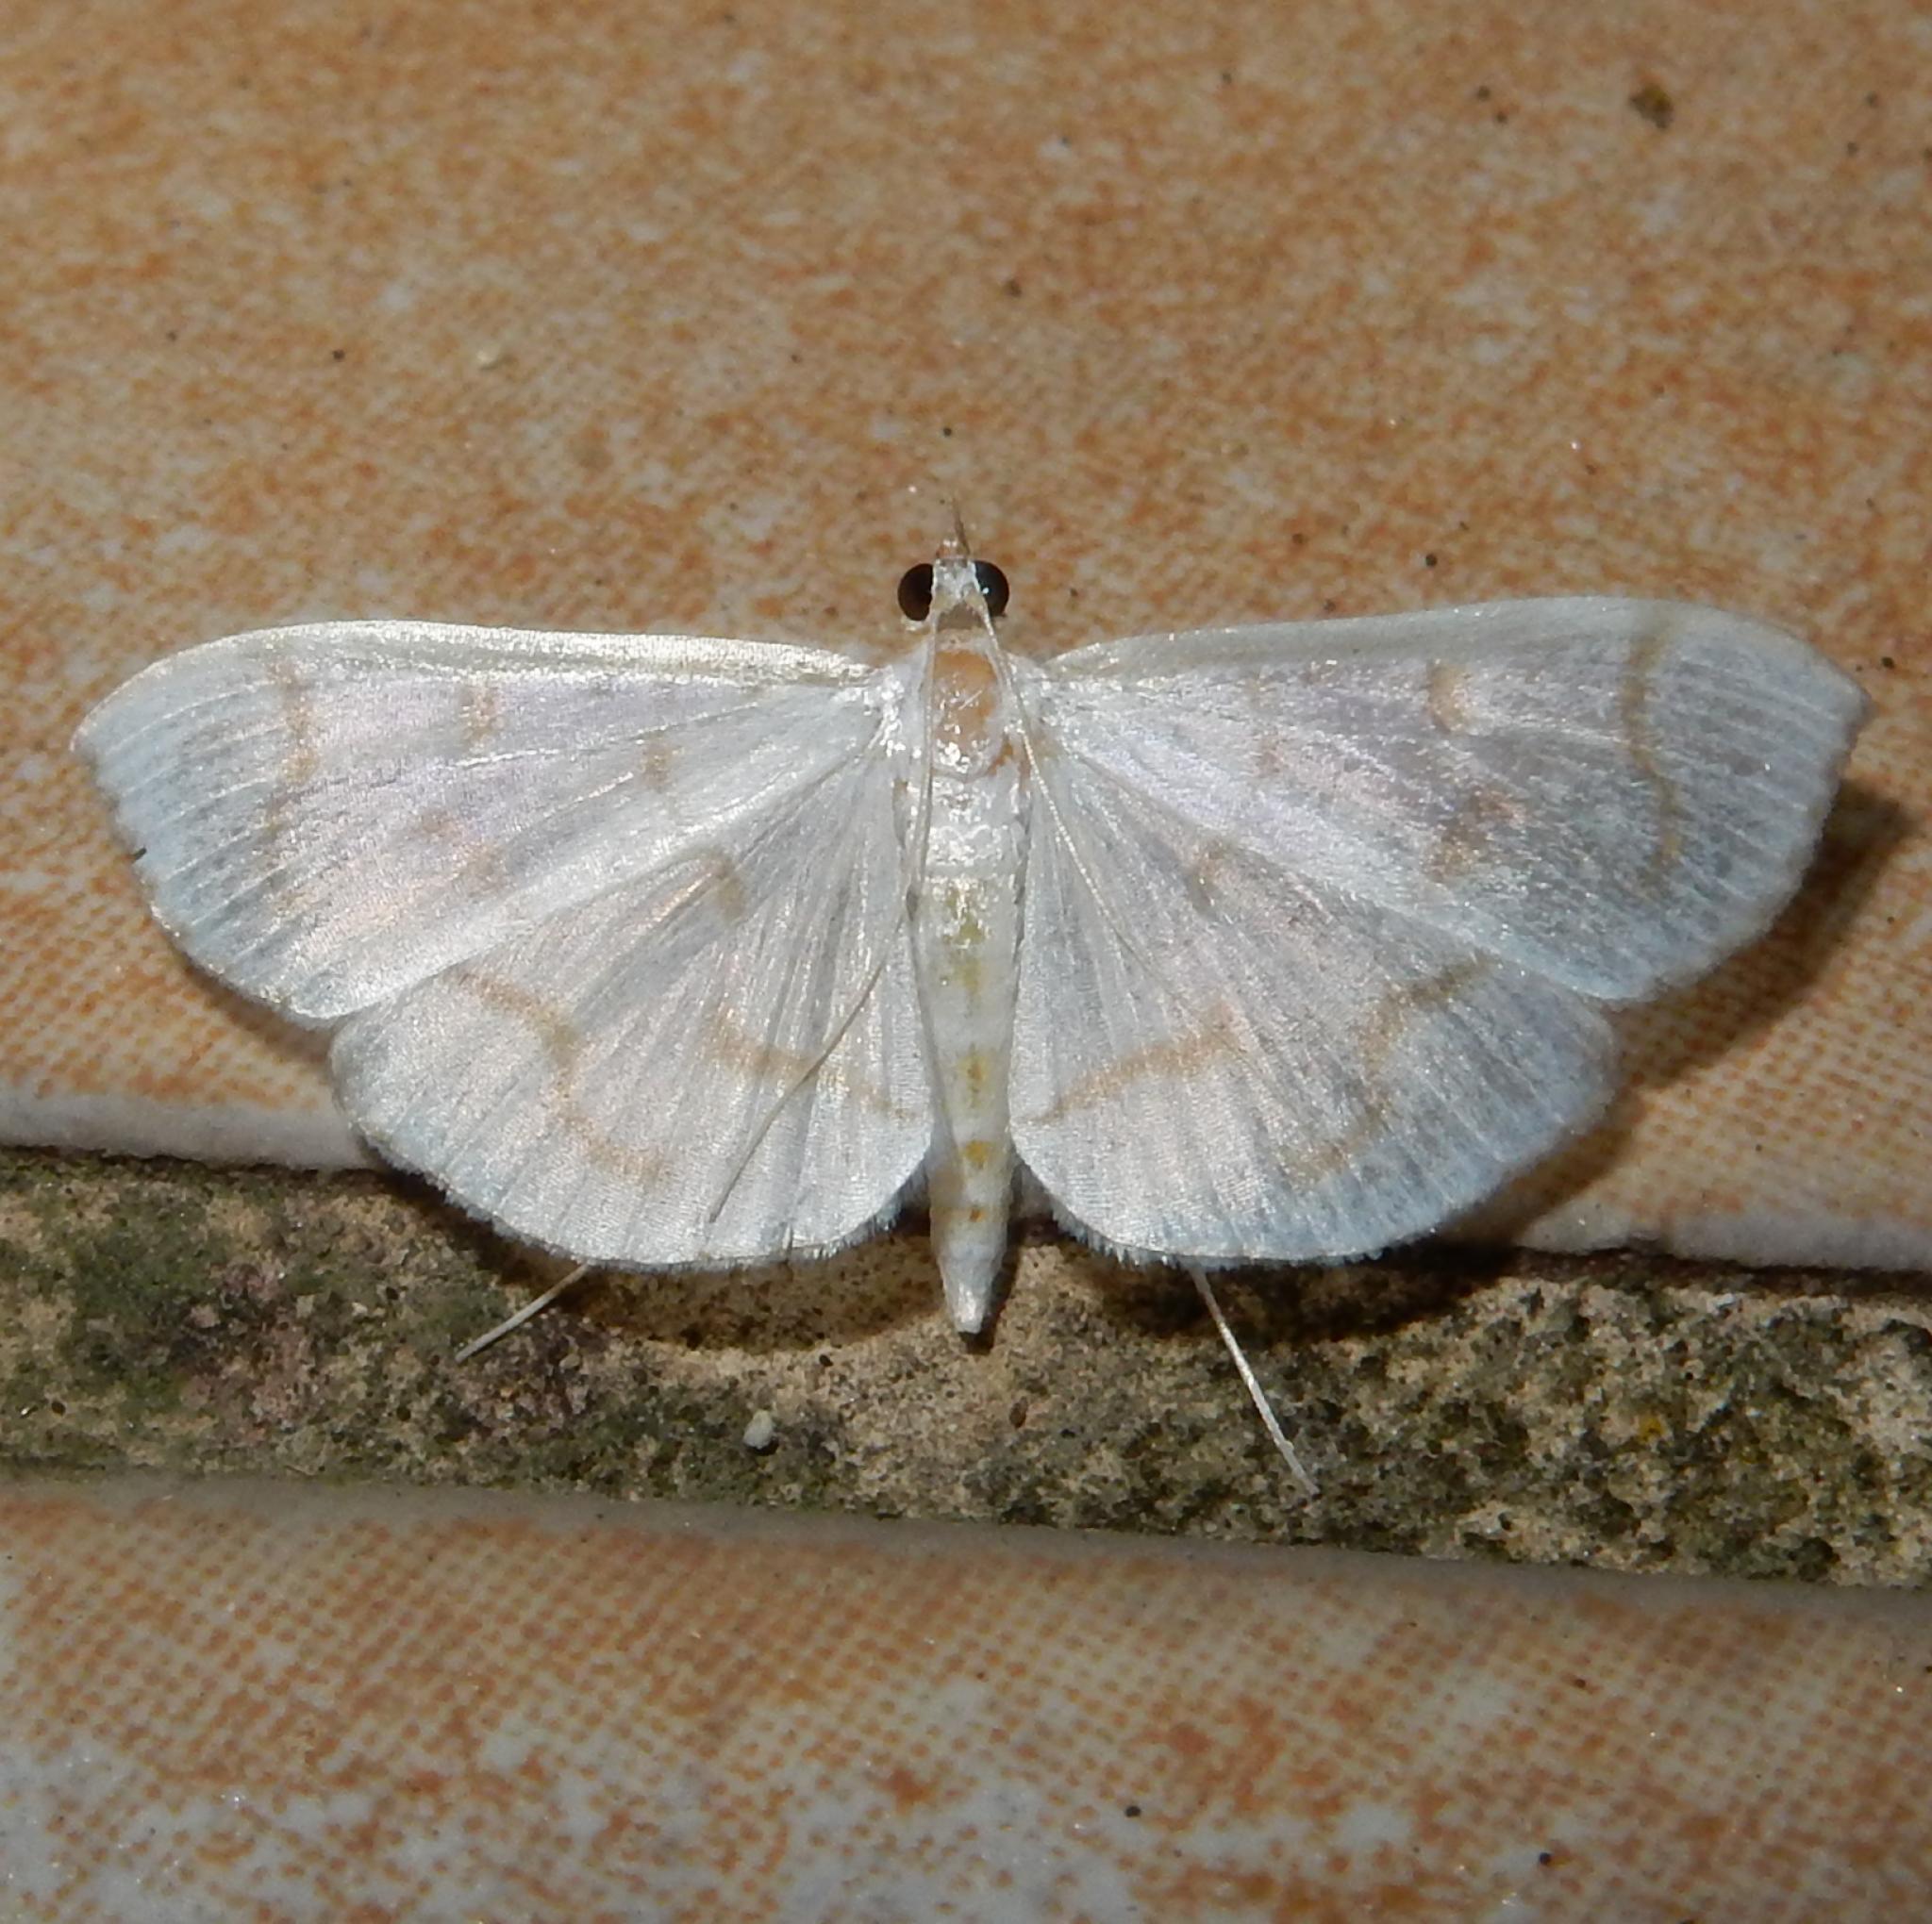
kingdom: Animalia
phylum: Arthropoda
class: Insecta
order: Lepidoptera
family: Crambidae
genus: Antigastra
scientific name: Antigastra morysalis
